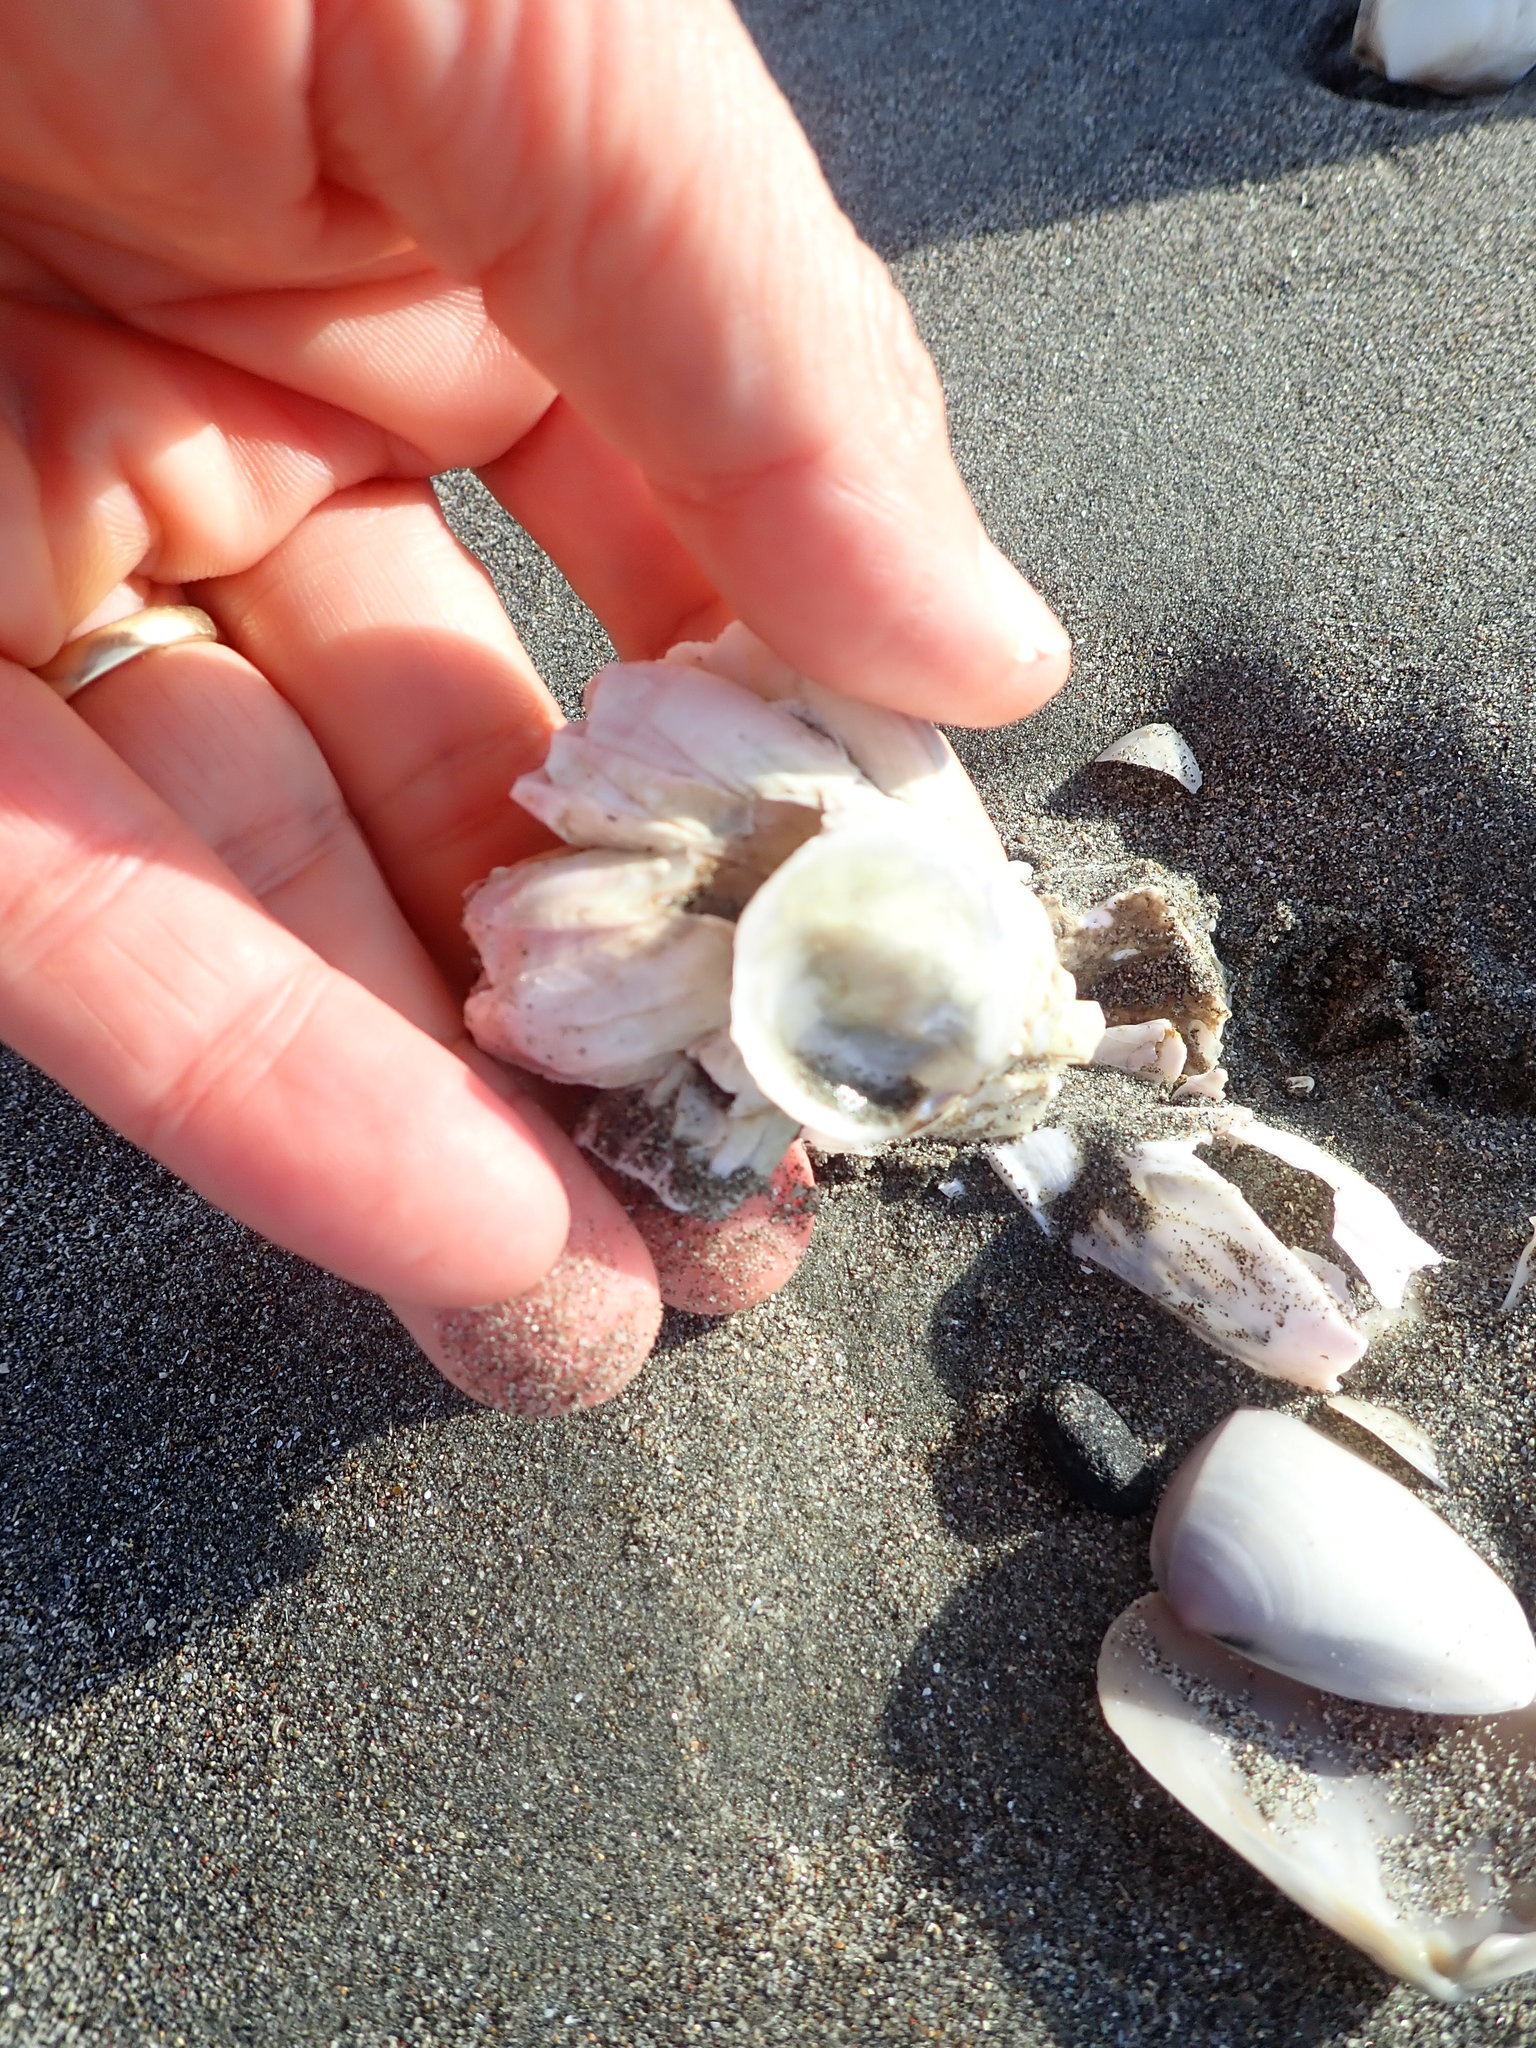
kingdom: Animalia
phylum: Arthropoda
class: Maxillopoda
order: Sessilia
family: Balanidae
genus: Notomegabalanus
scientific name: Notomegabalanus decorus
